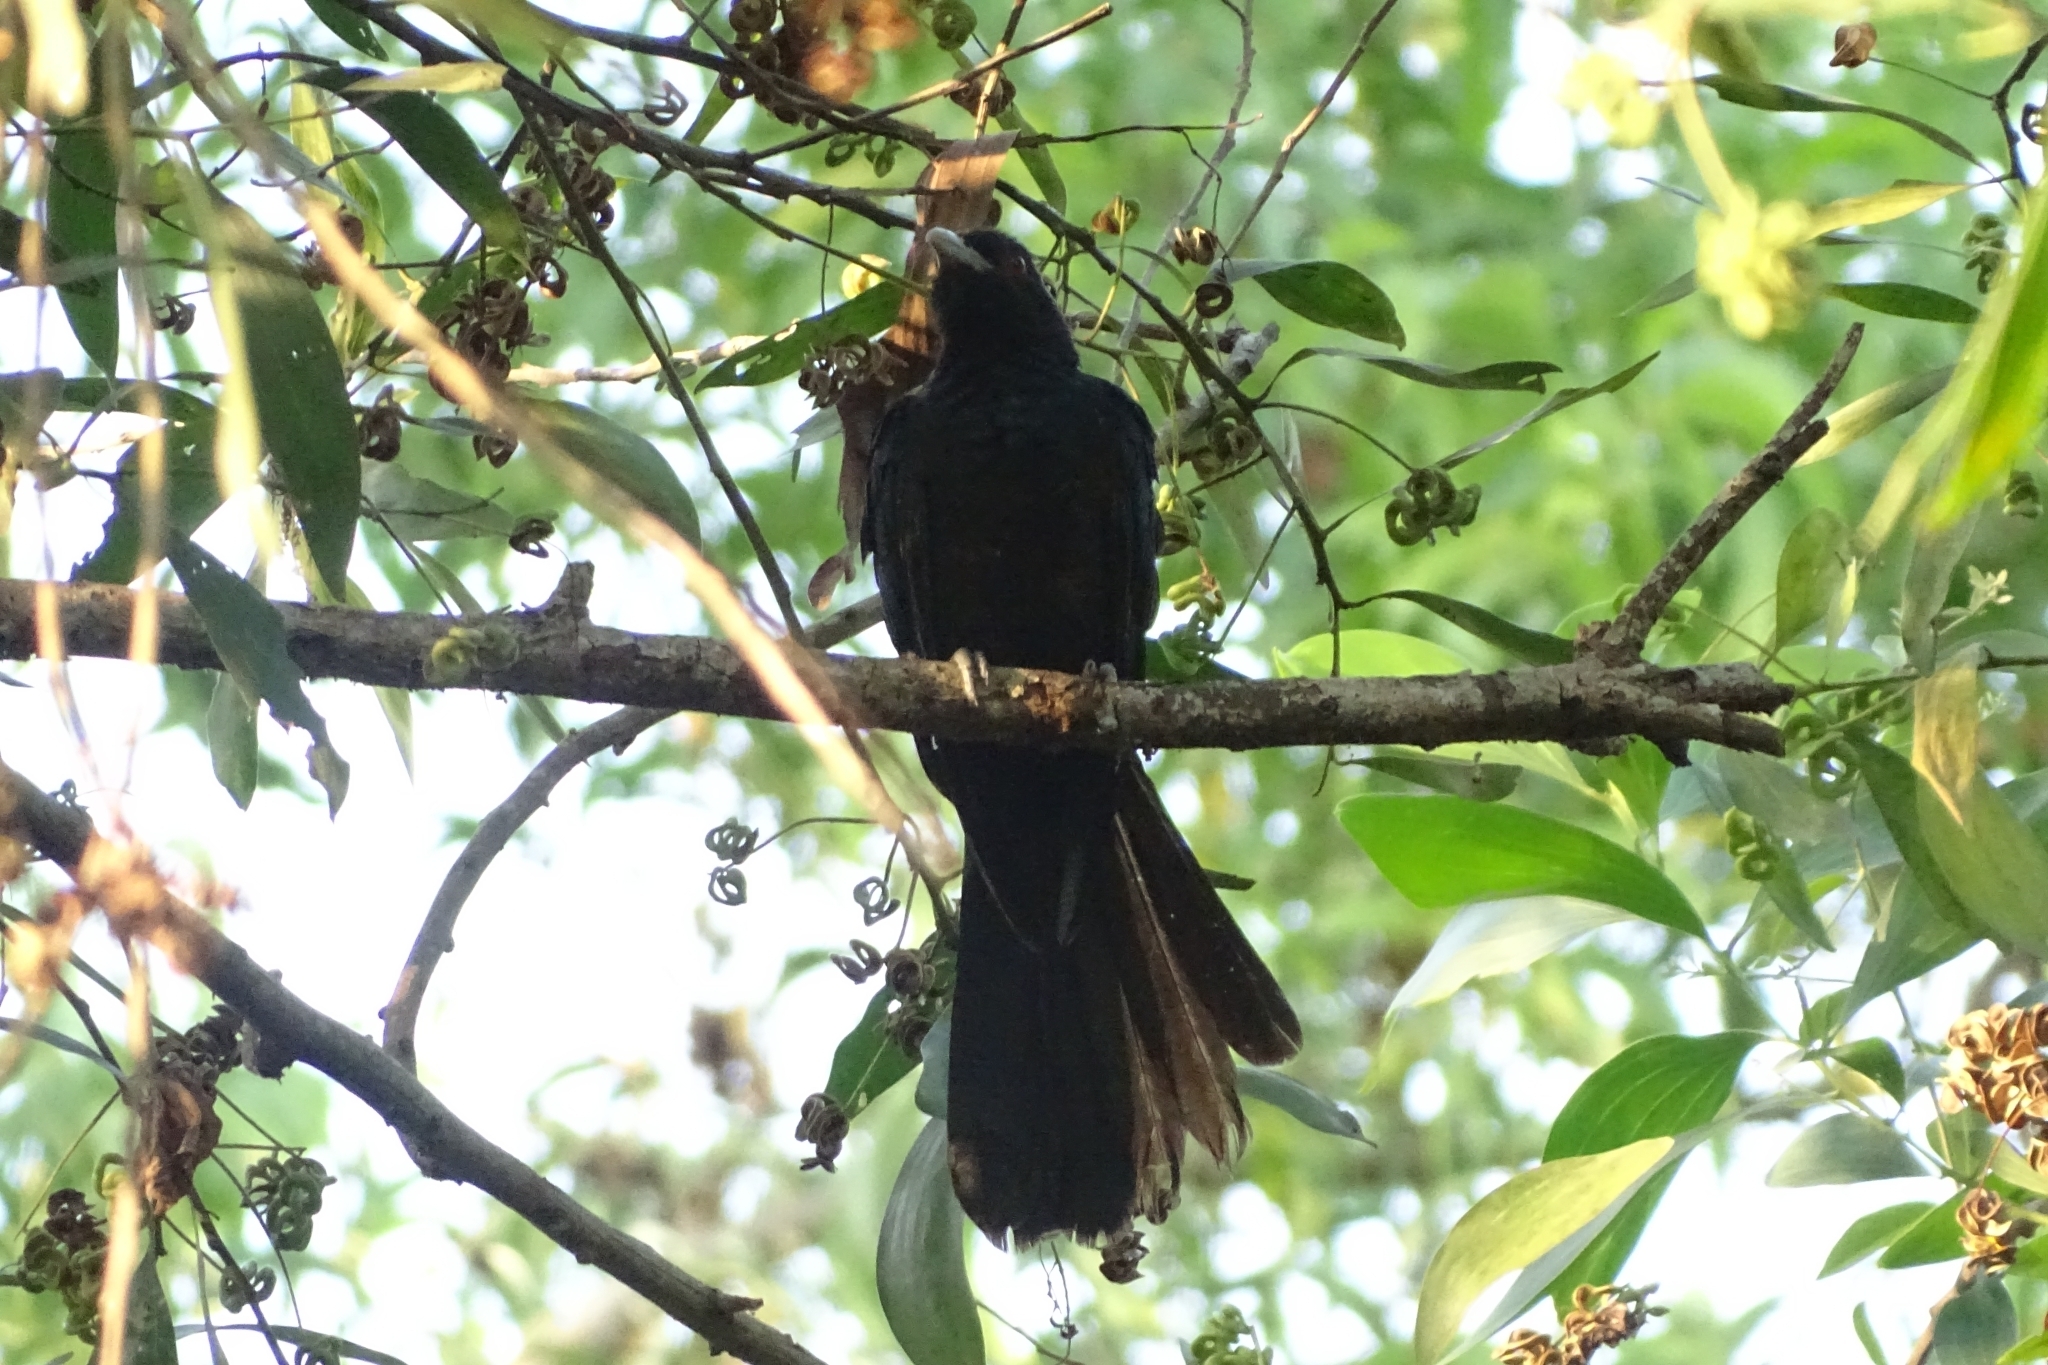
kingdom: Animalia
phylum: Chordata
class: Aves
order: Cuculiformes
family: Cuculidae
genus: Eudynamys
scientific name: Eudynamys scolopaceus
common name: Asian koel
